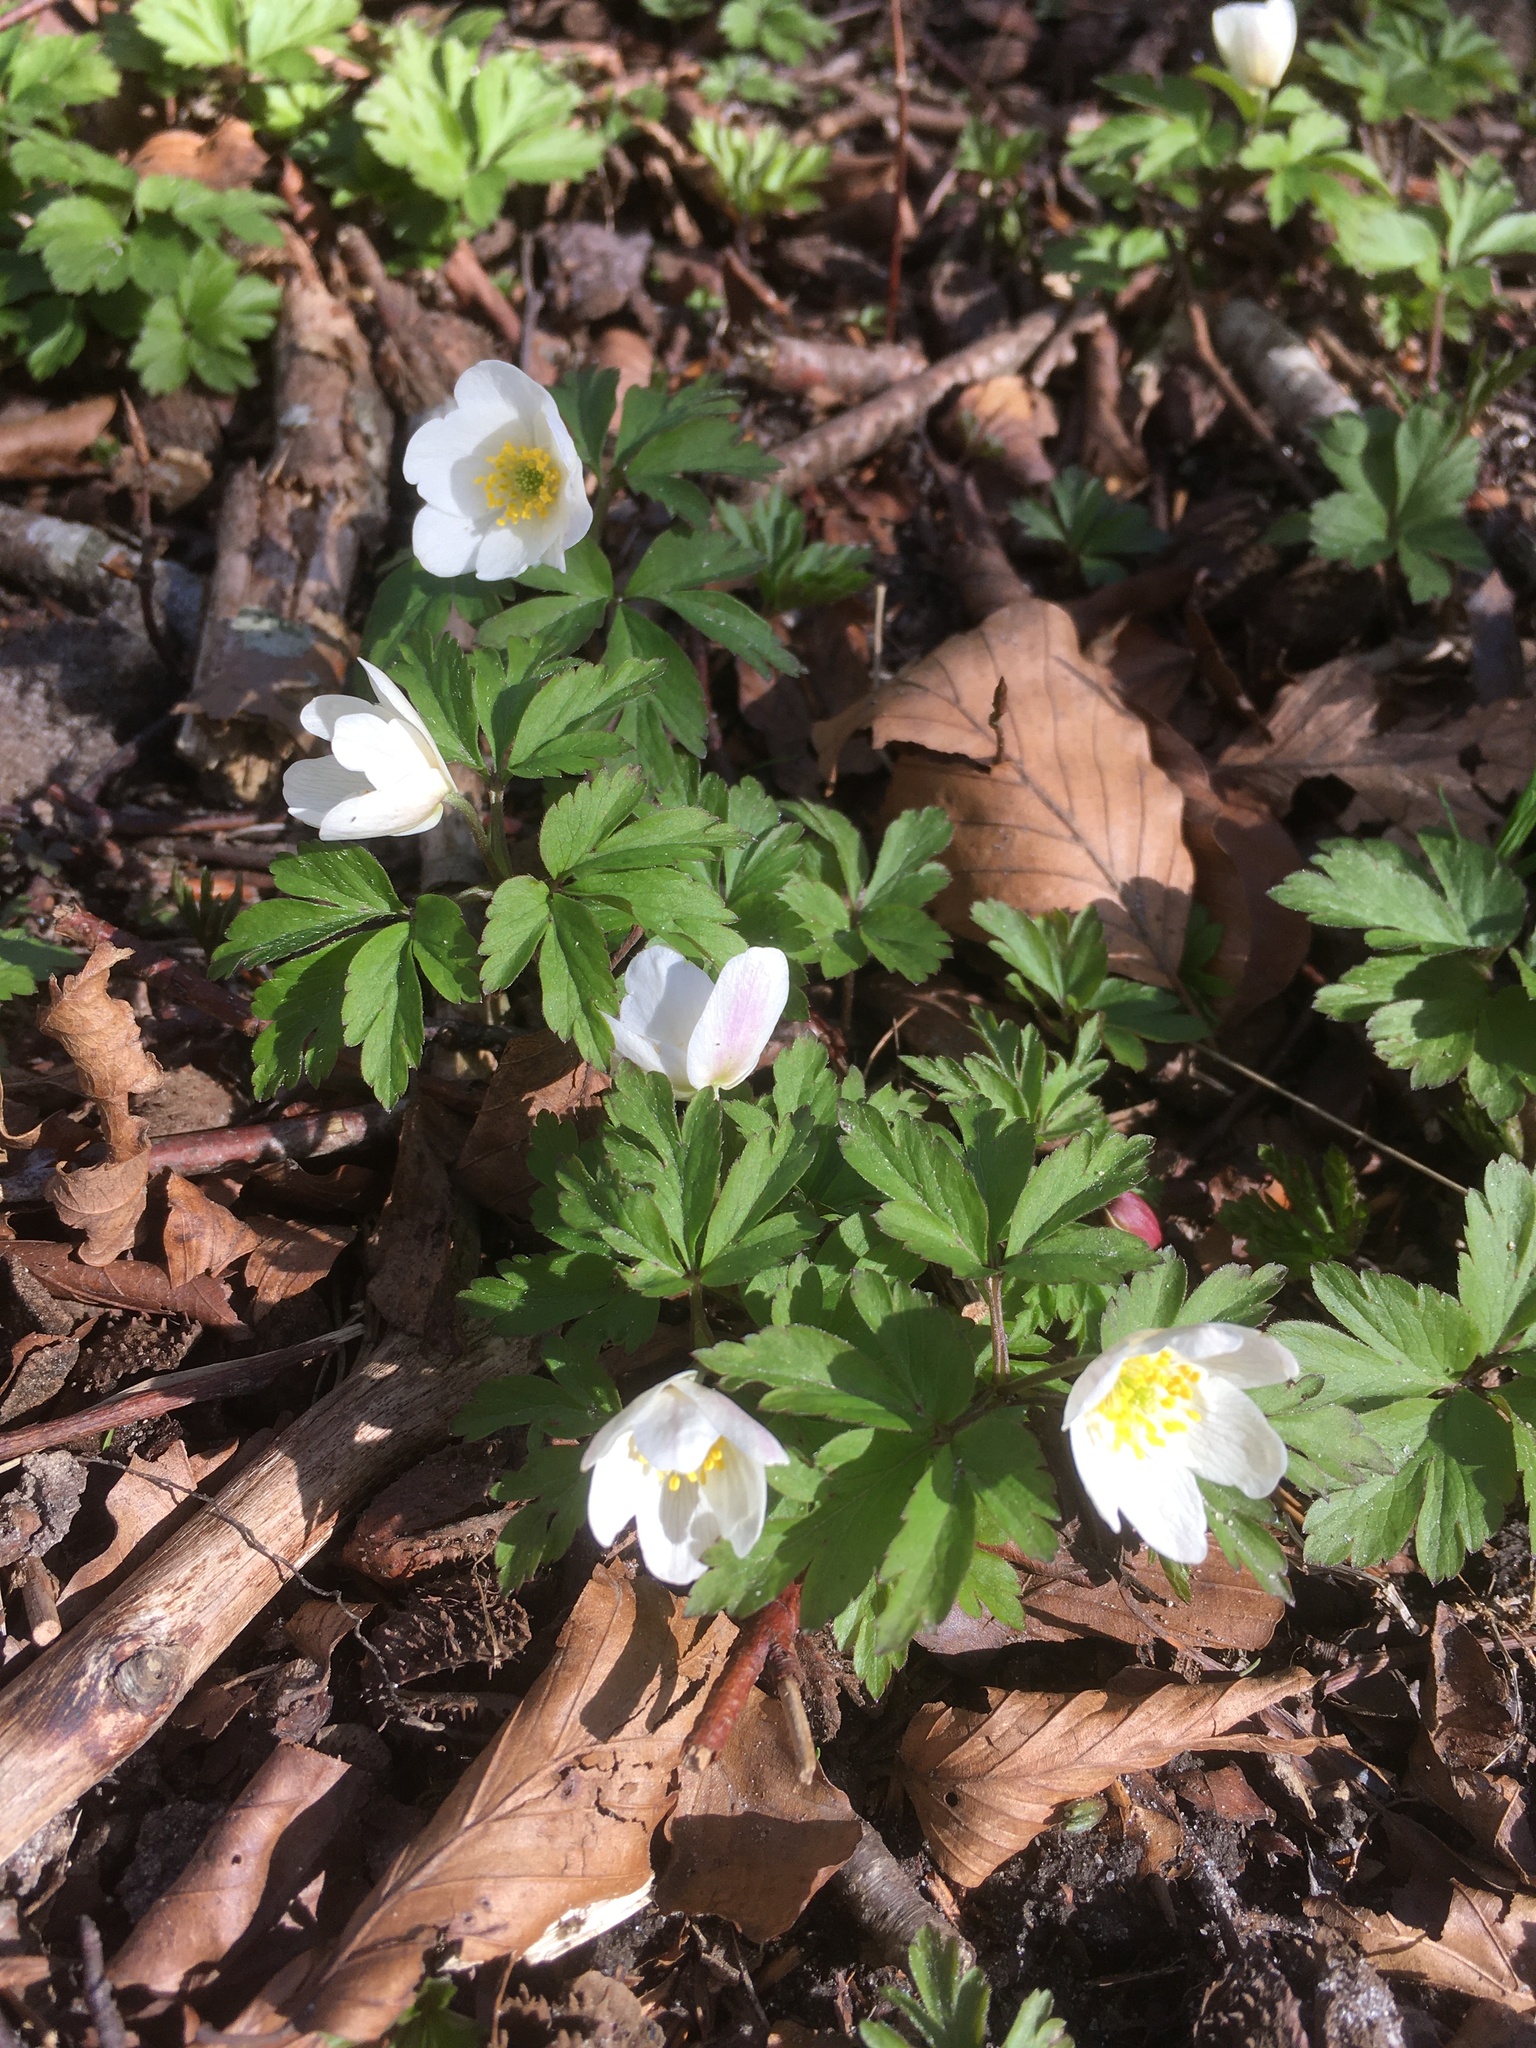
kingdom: Plantae
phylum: Tracheophyta
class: Magnoliopsida
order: Ranunculales
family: Ranunculaceae
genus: Anemone
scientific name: Anemone nemorosa
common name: Wood anemone
